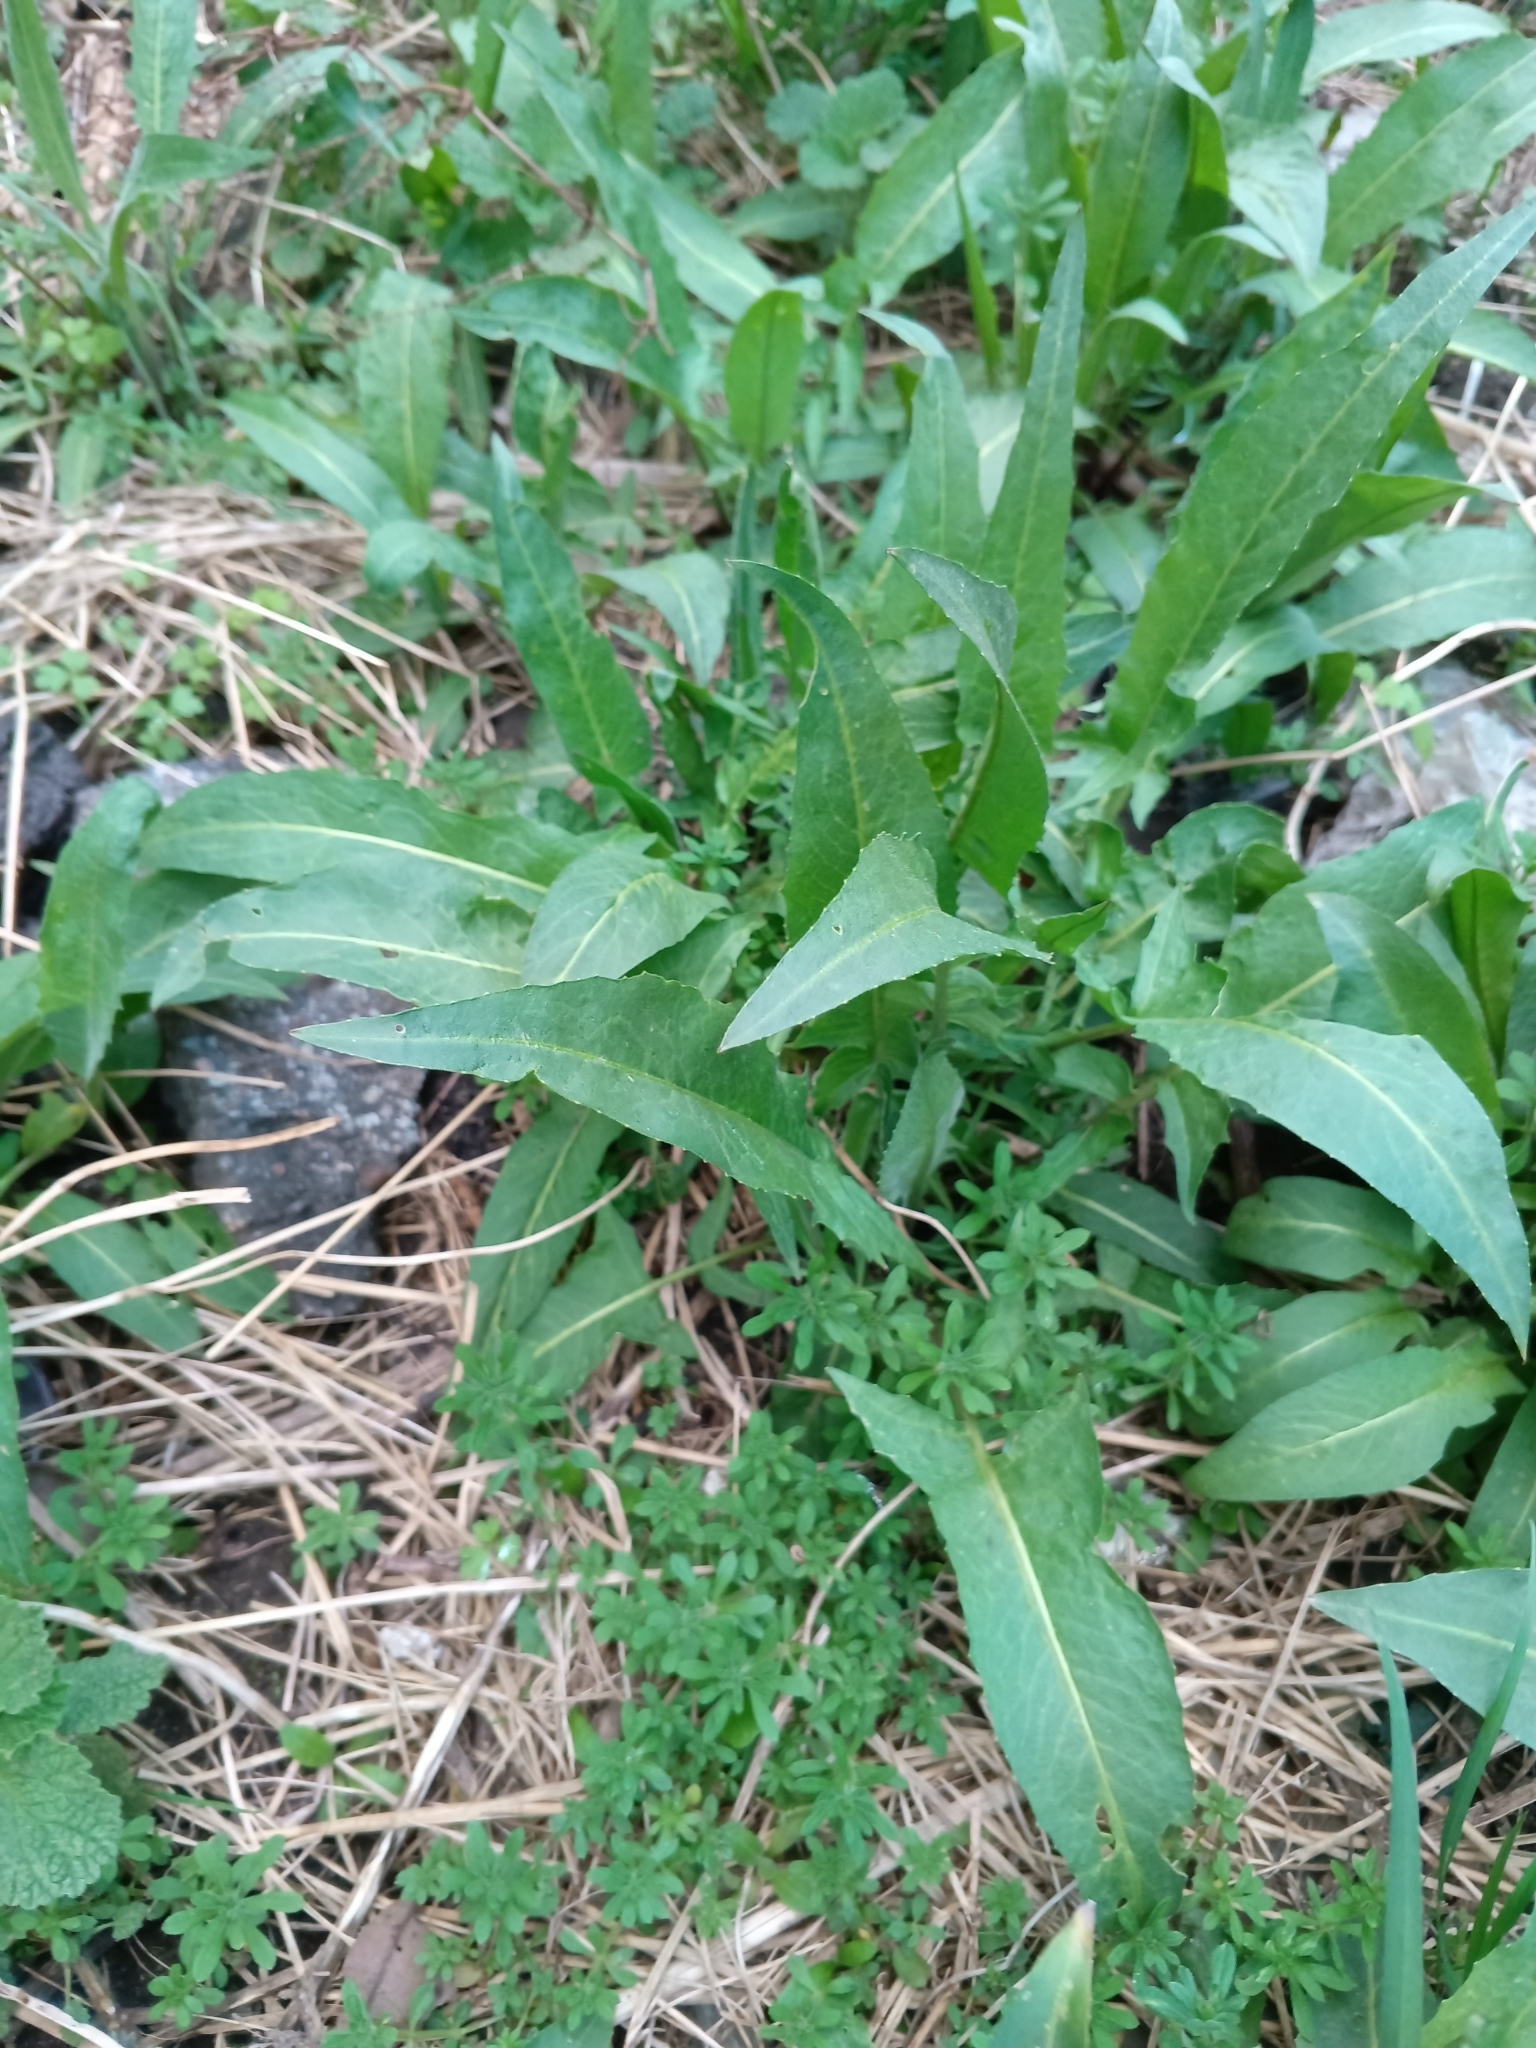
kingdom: Plantae
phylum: Tracheophyta
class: Magnoliopsida
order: Brassicales
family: Brassicaceae
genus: Bunias
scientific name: Bunias orientalis
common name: Warty-cabbage
